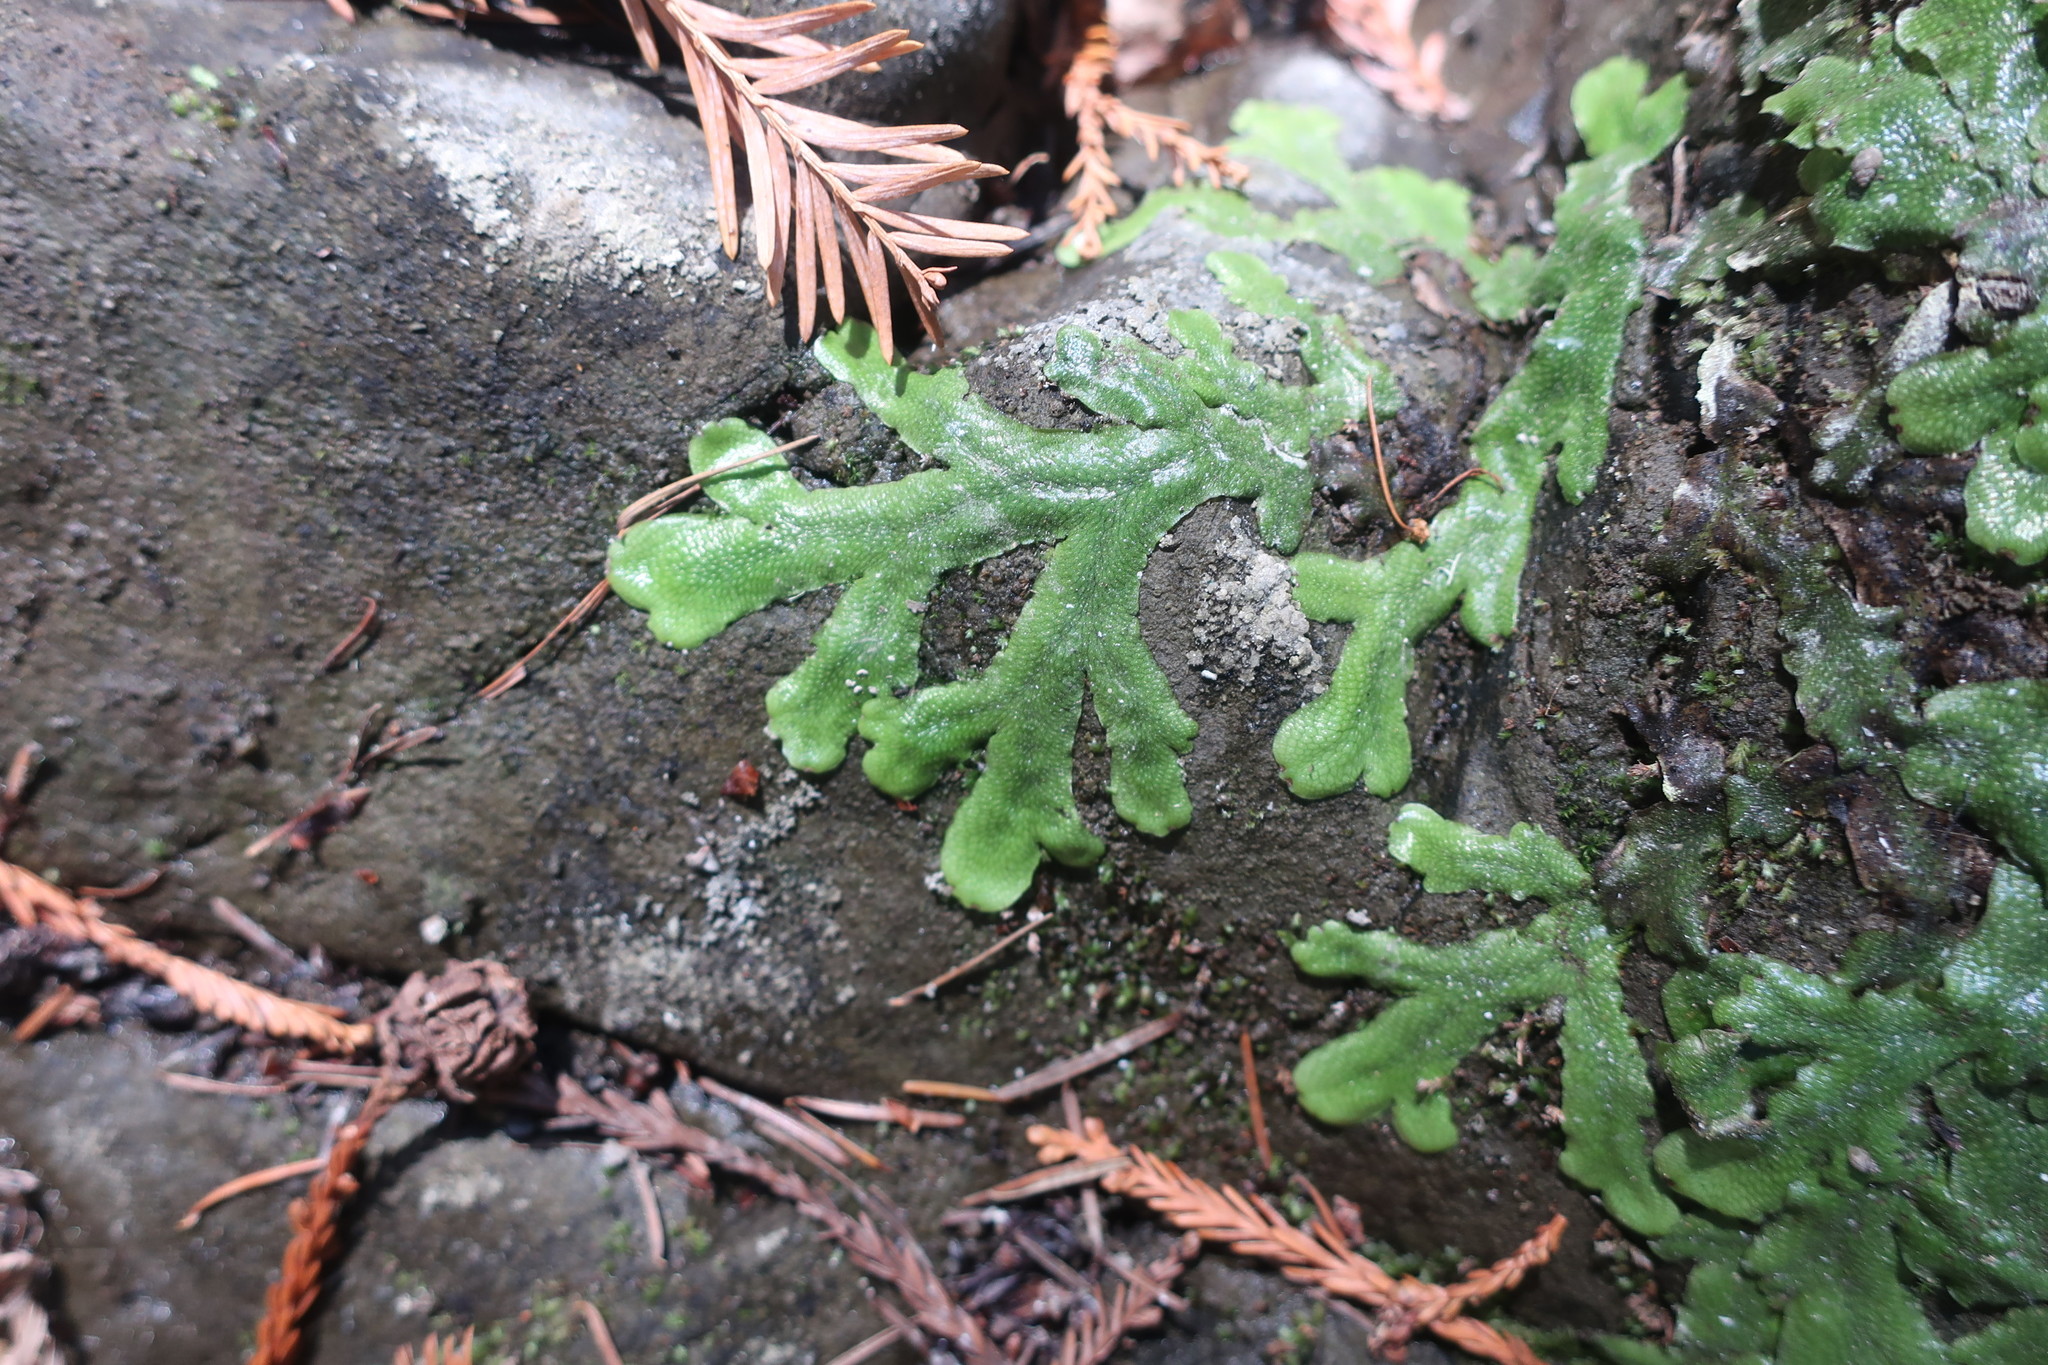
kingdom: Plantae
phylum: Marchantiophyta
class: Marchantiopsida
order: Marchantiales
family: Conocephalaceae
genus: Conocephalum
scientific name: Conocephalum salebrosum
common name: Cat-tongue liverwort
